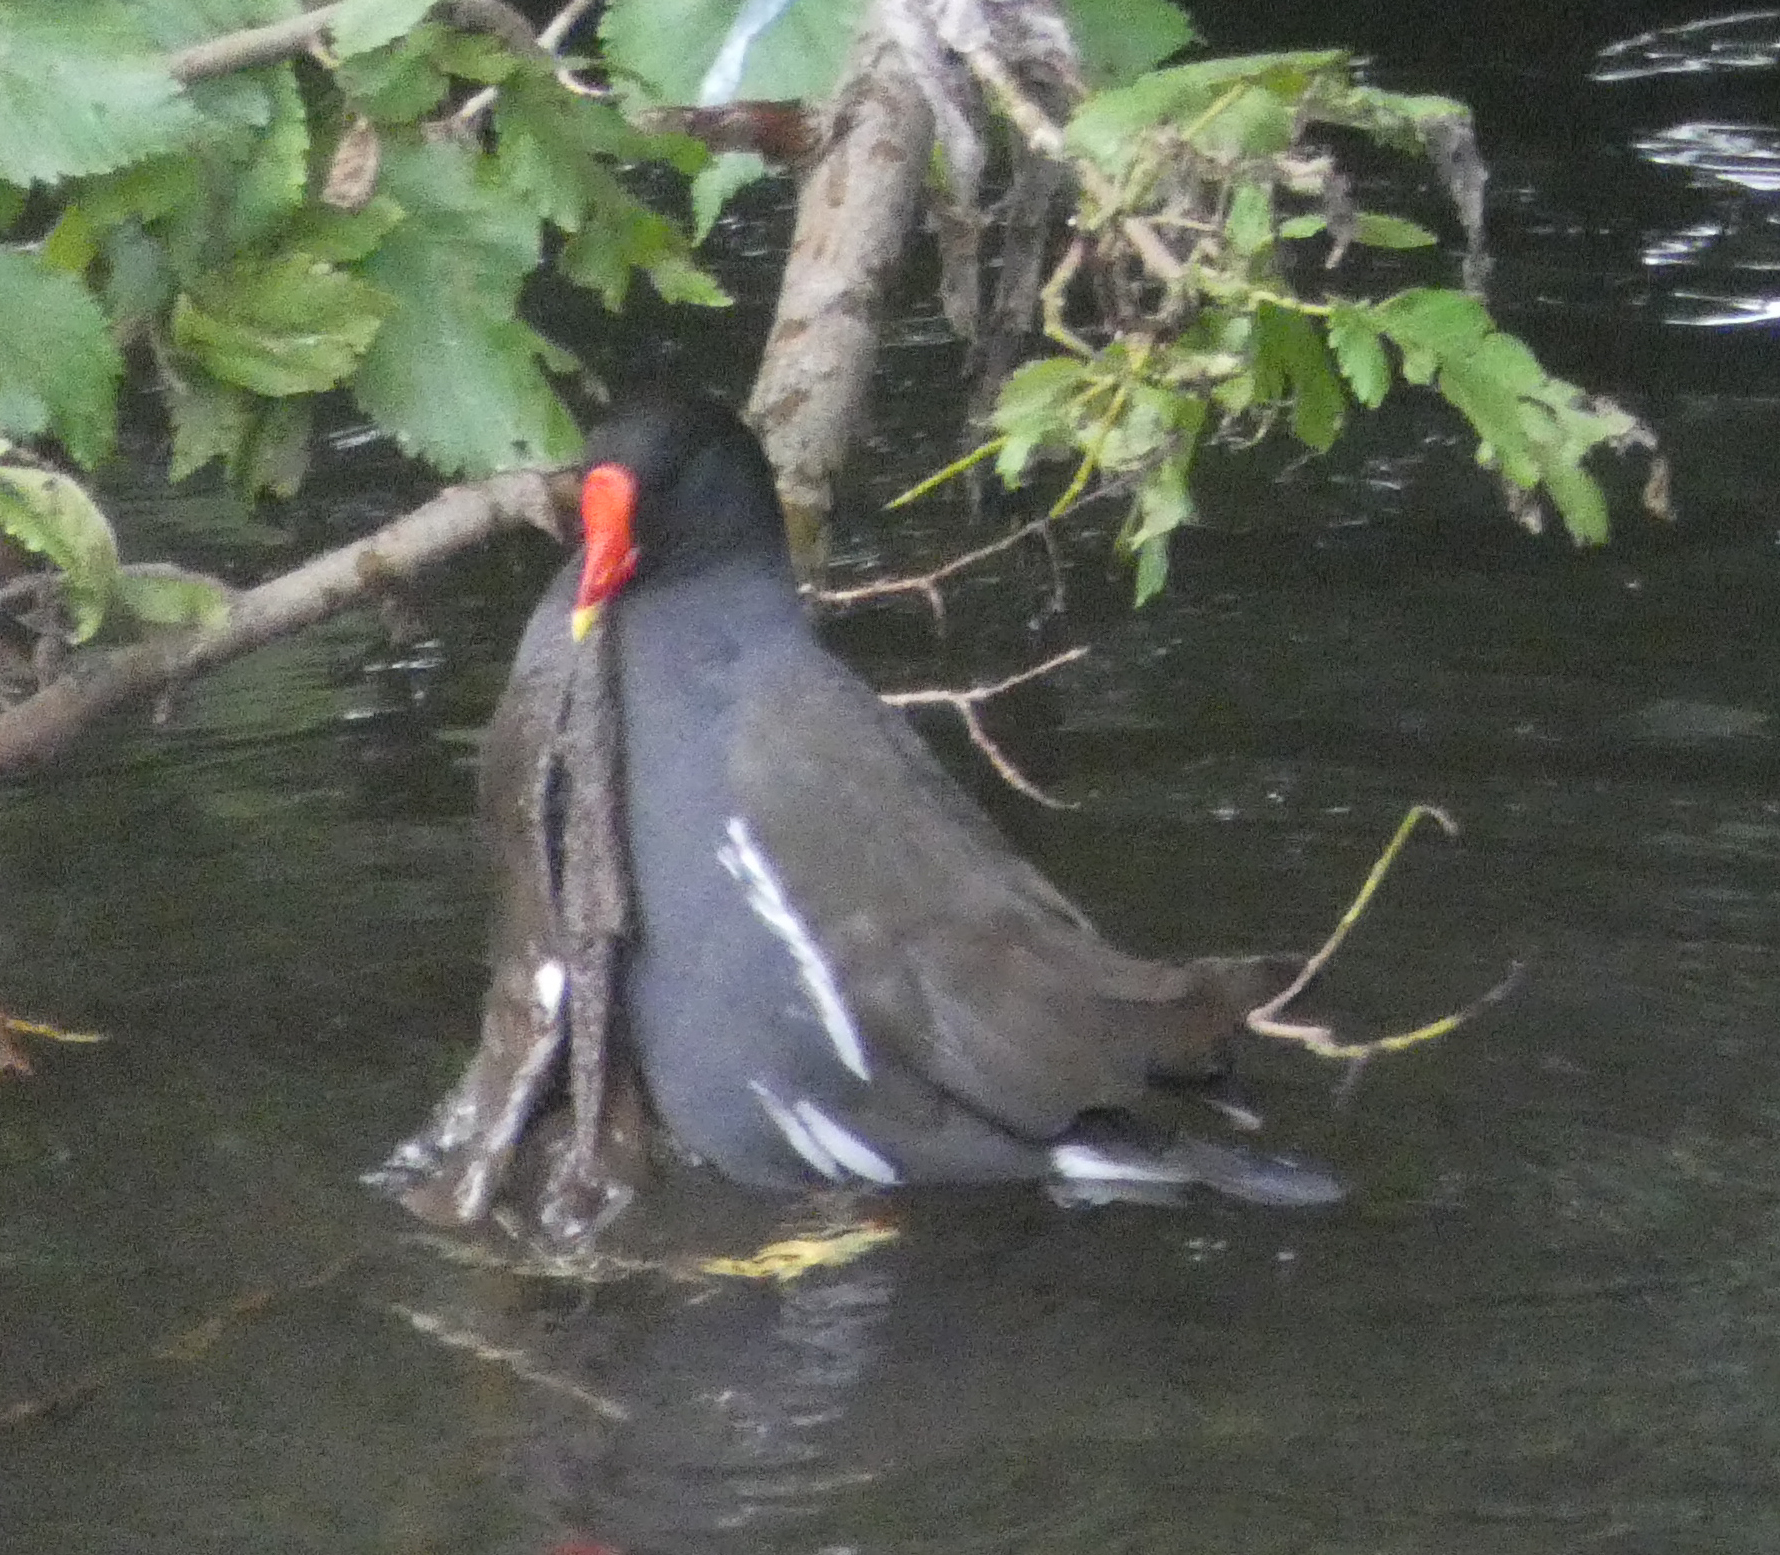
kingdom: Animalia
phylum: Chordata
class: Aves
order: Gruiformes
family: Rallidae
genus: Gallinula
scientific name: Gallinula chloropus
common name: Common moorhen
